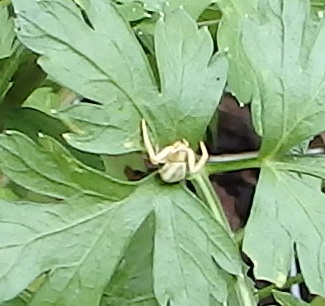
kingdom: Animalia
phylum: Arthropoda
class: Arachnida
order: Araneae
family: Thomisidae
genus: Misumenoides
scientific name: Misumenoides formosipes
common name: White-banded crab spider
